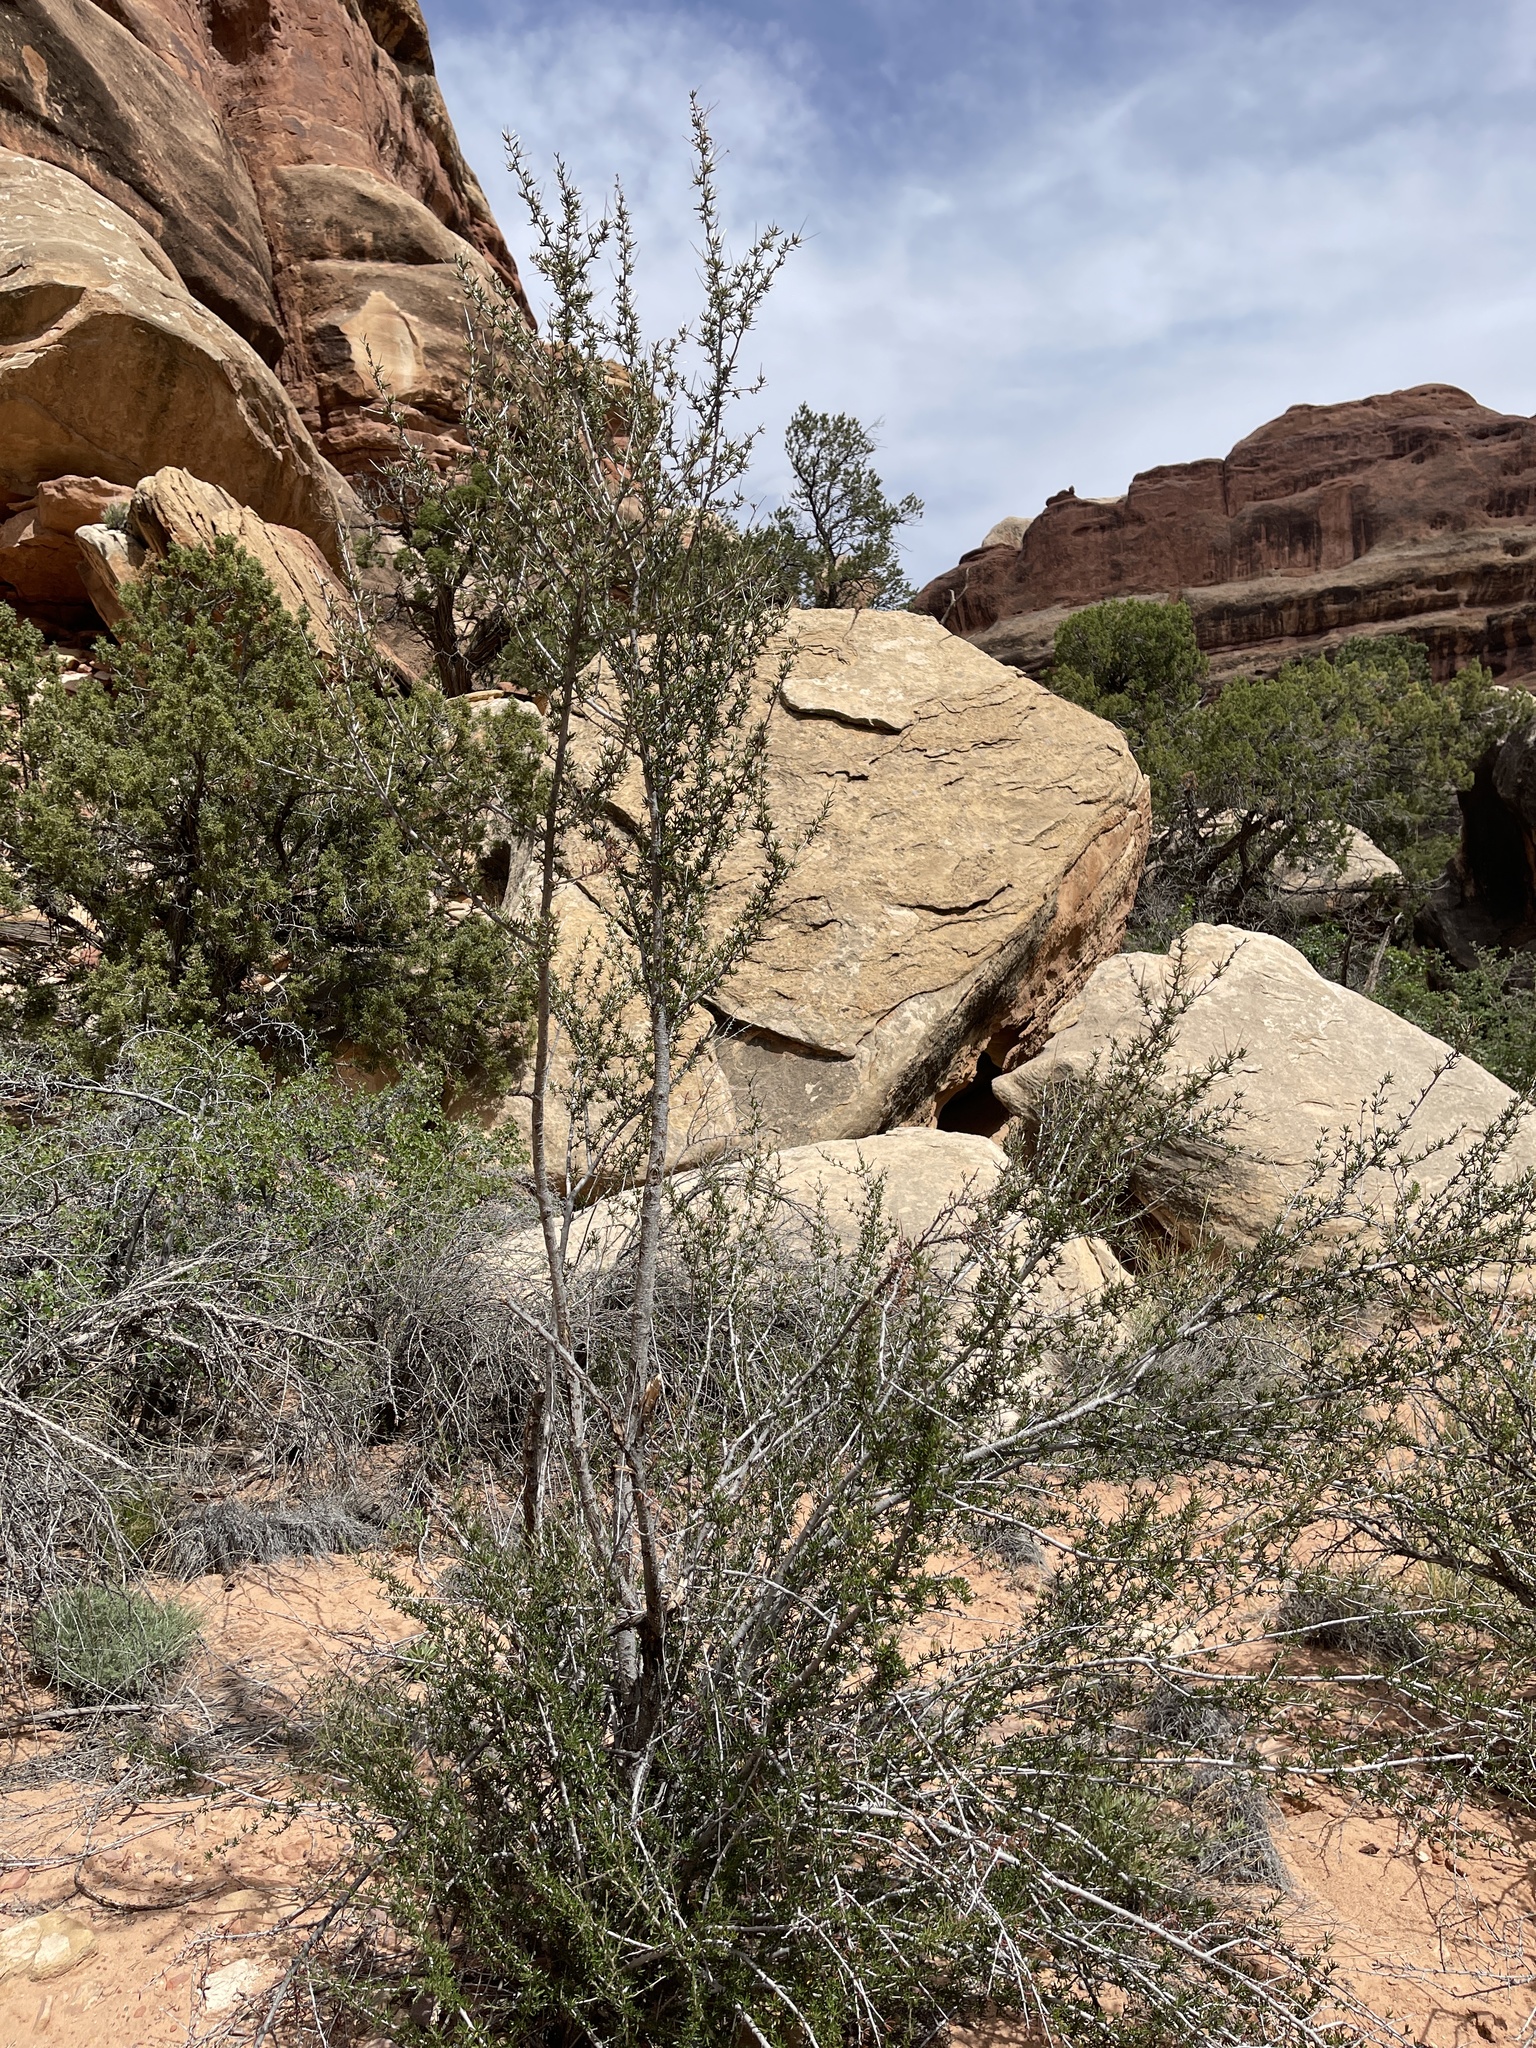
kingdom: Plantae
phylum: Tracheophyta
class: Magnoliopsida
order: Rosales
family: Rosaceae
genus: Cercocarpus
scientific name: Cercocarpus intricatus
